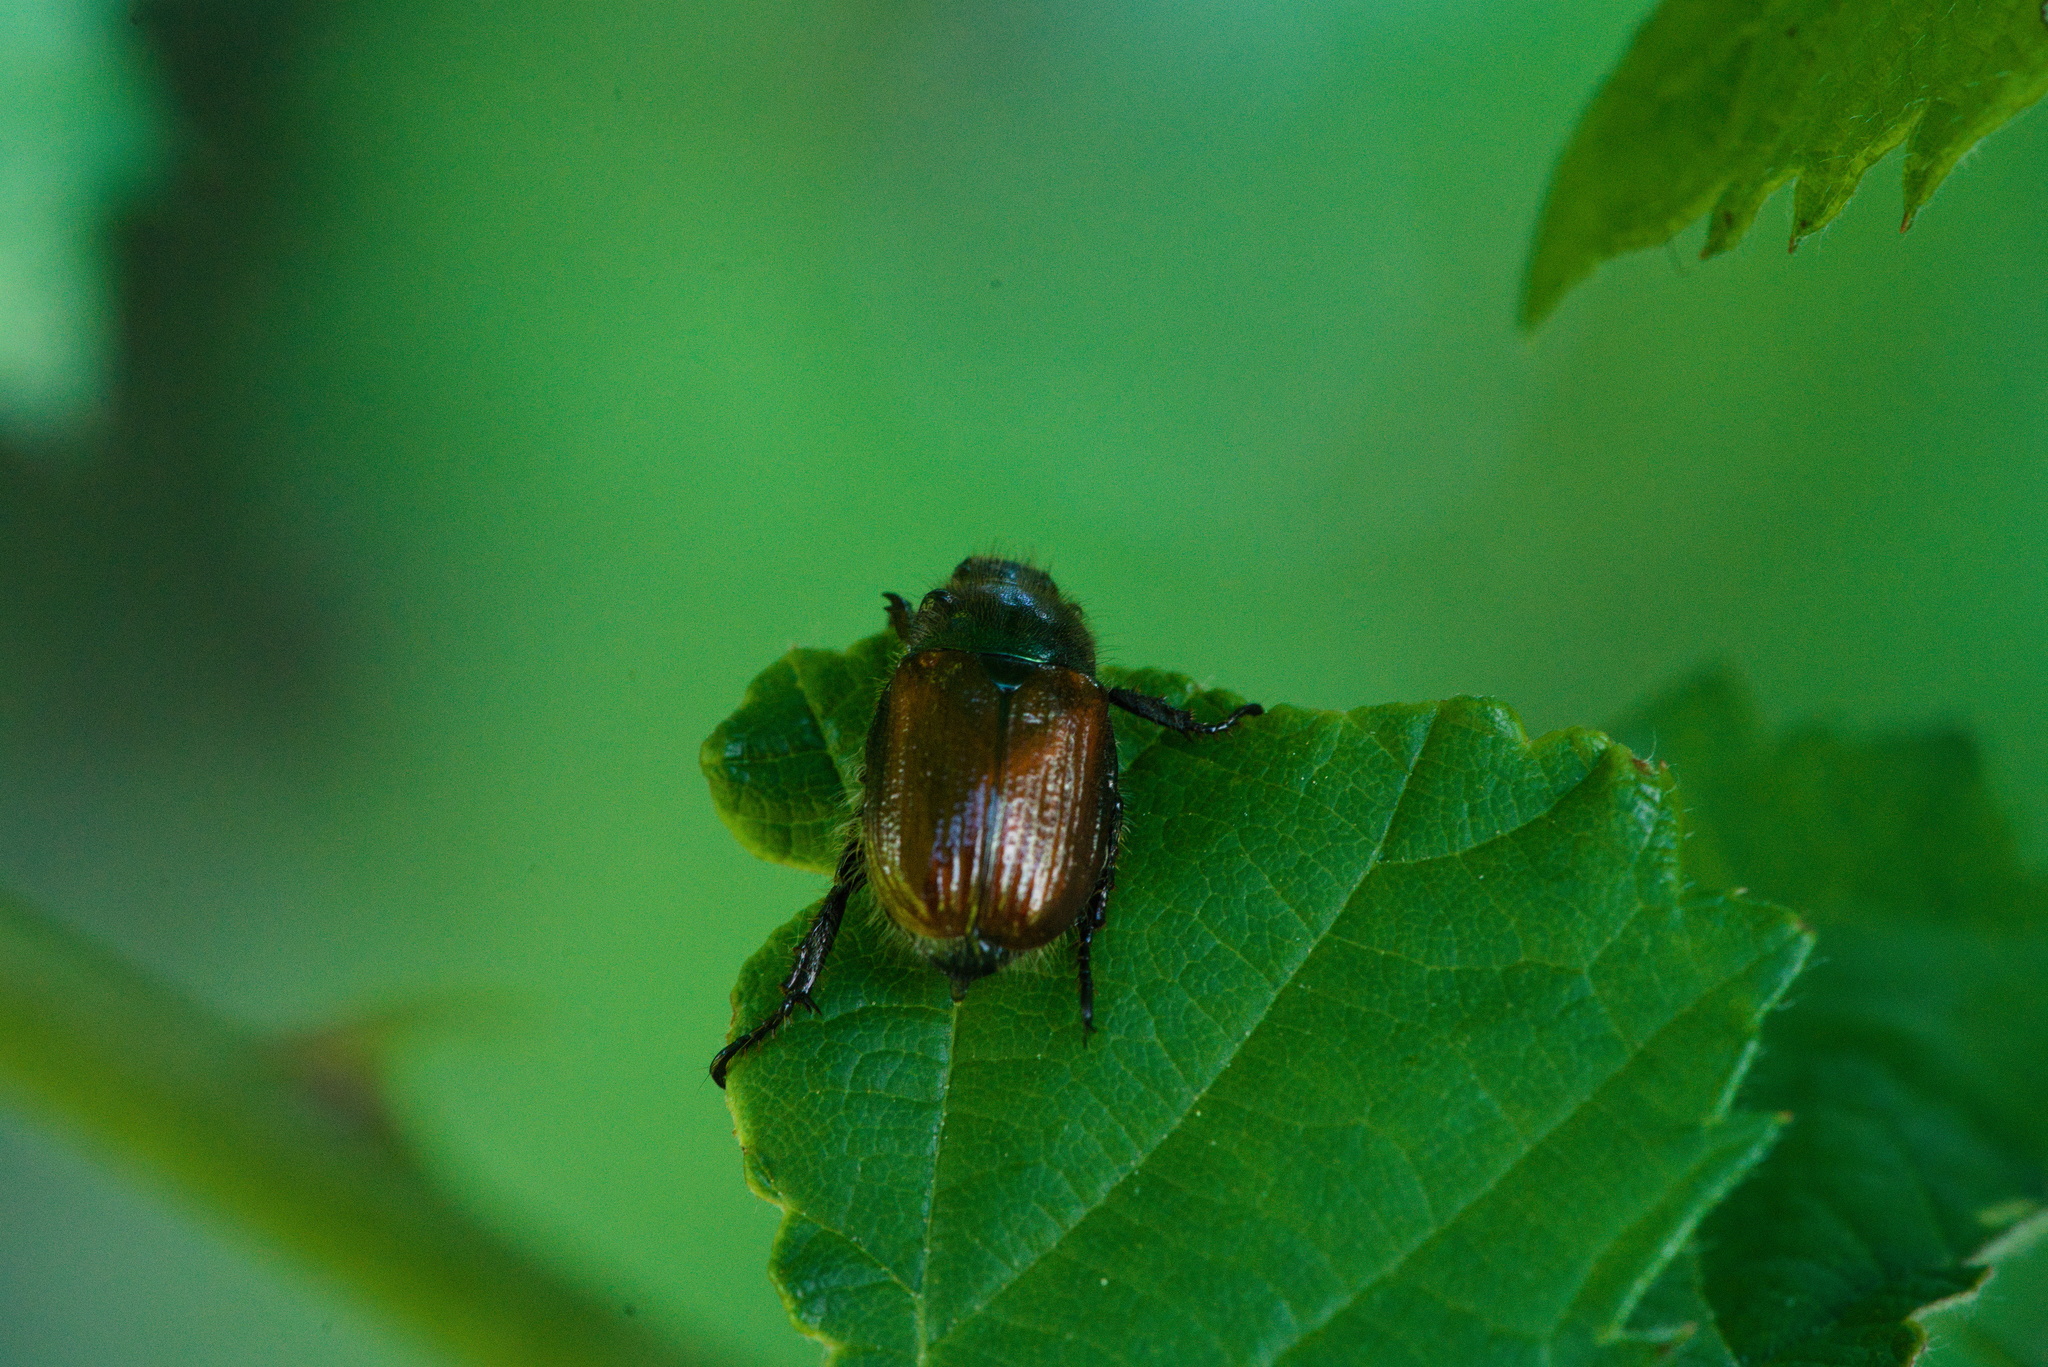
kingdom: Animalia
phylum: Arthropoda
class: Insecta
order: Coleoptera
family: Scarabaeidae
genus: Phyllopertha
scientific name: Phyllopertha horticola
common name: Garden chafer
